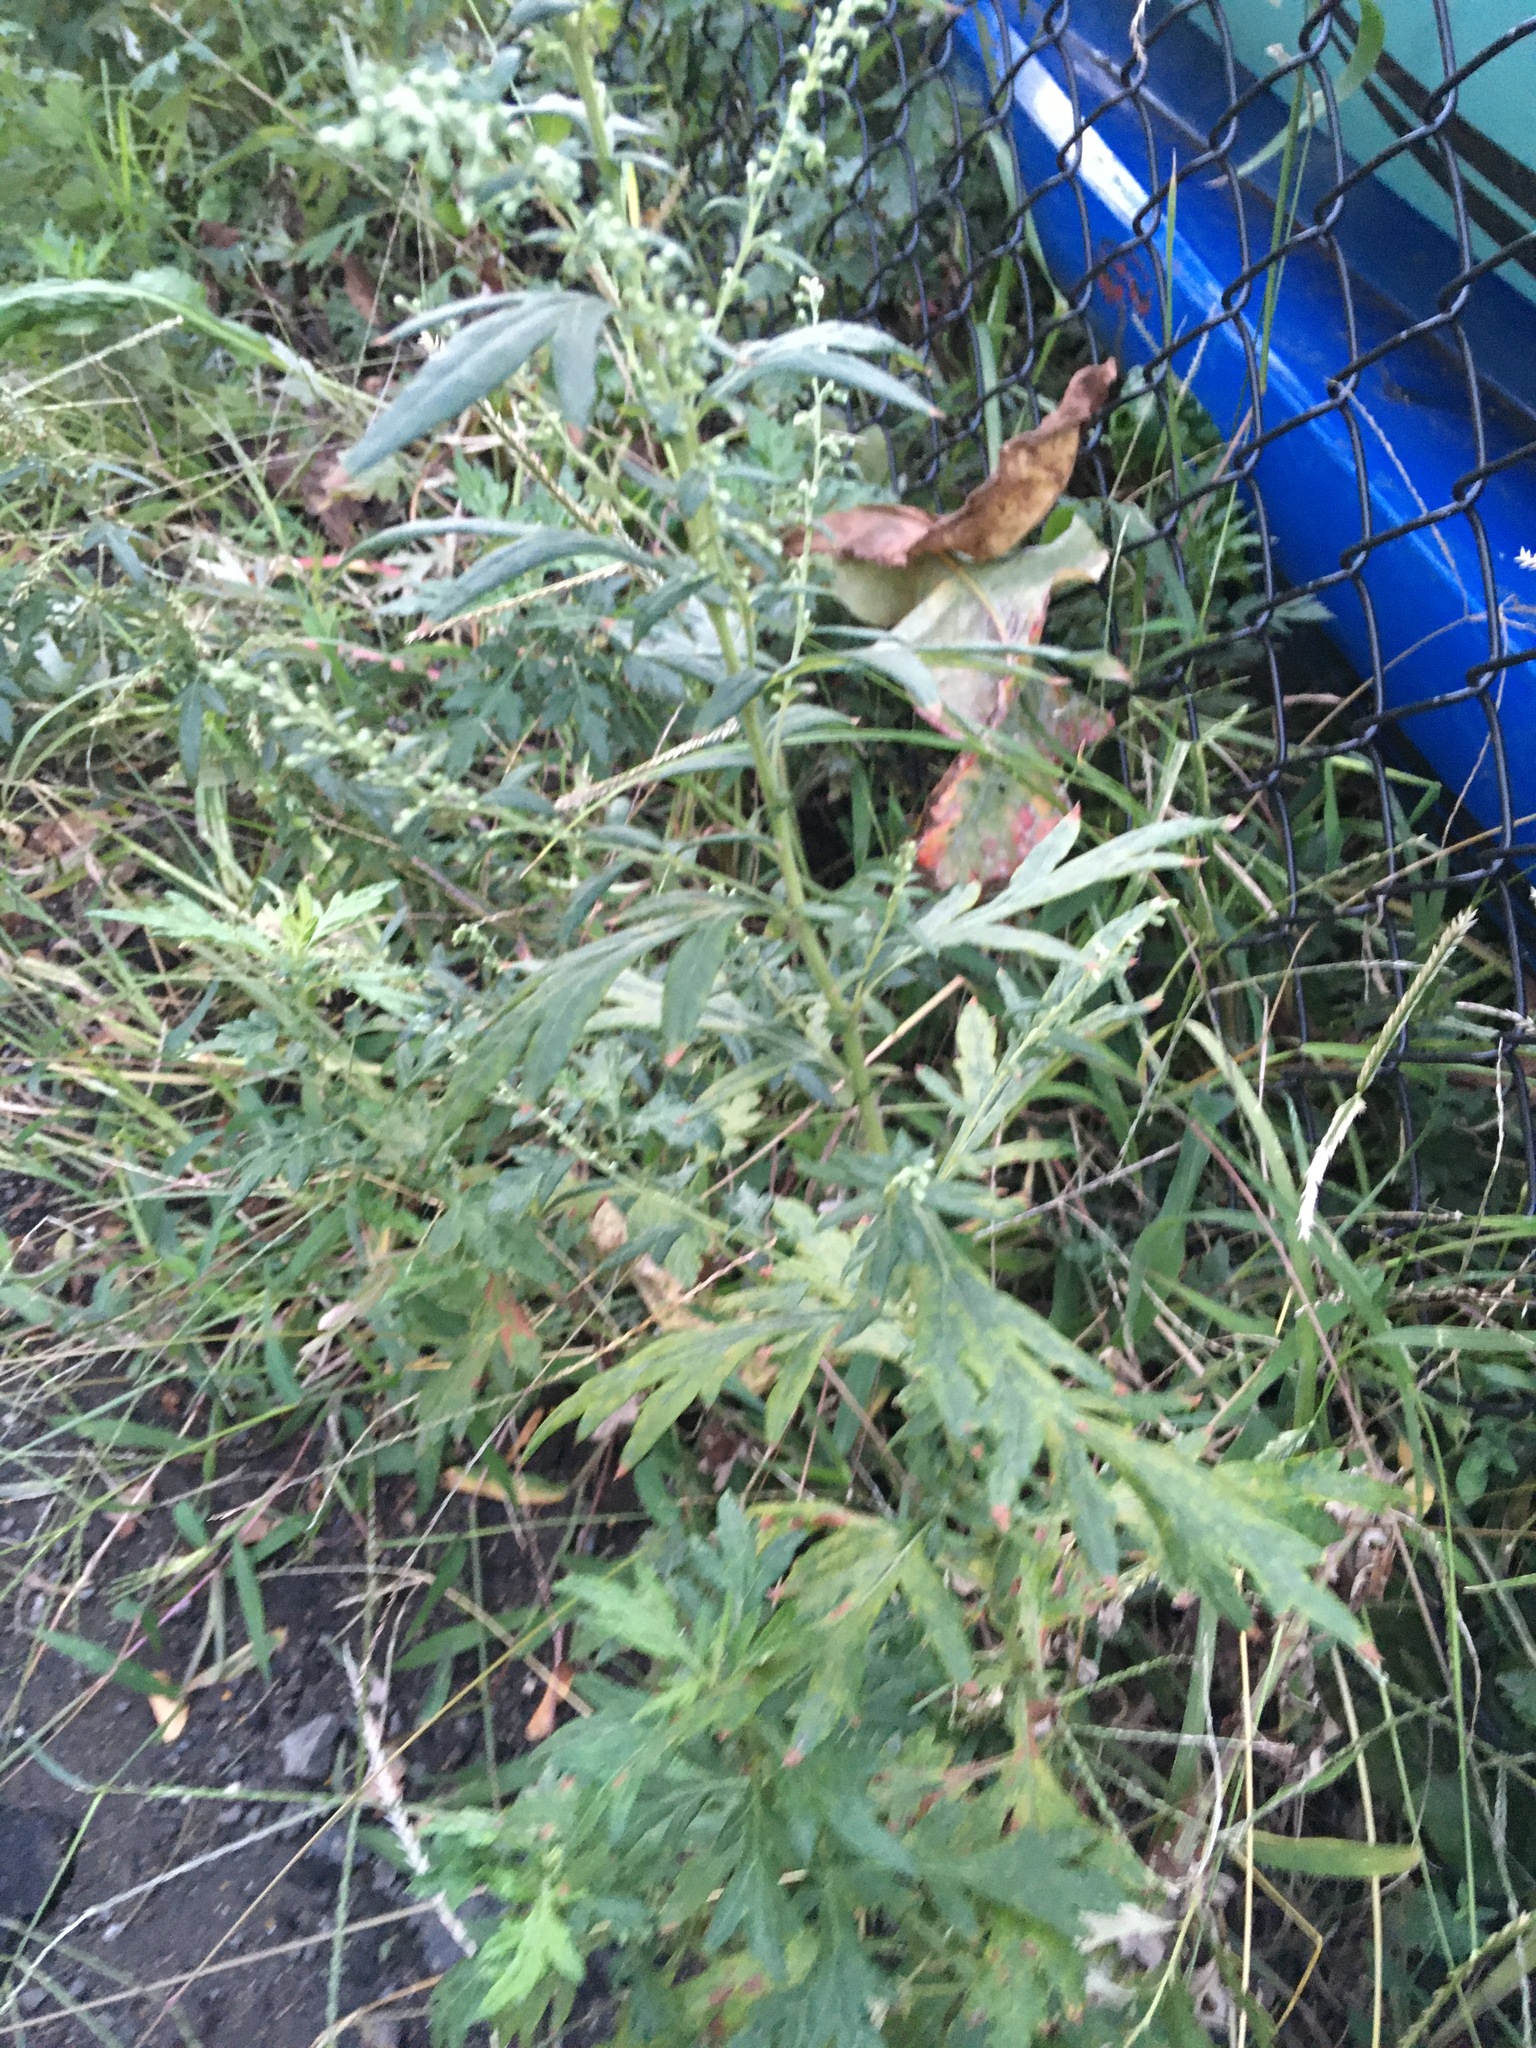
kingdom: Plantae
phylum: Tracheophyta
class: Magnoliopsida
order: Asterales
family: Asteraceae
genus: Artemisia
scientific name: Artemisia vulgaris
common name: Mugwort
